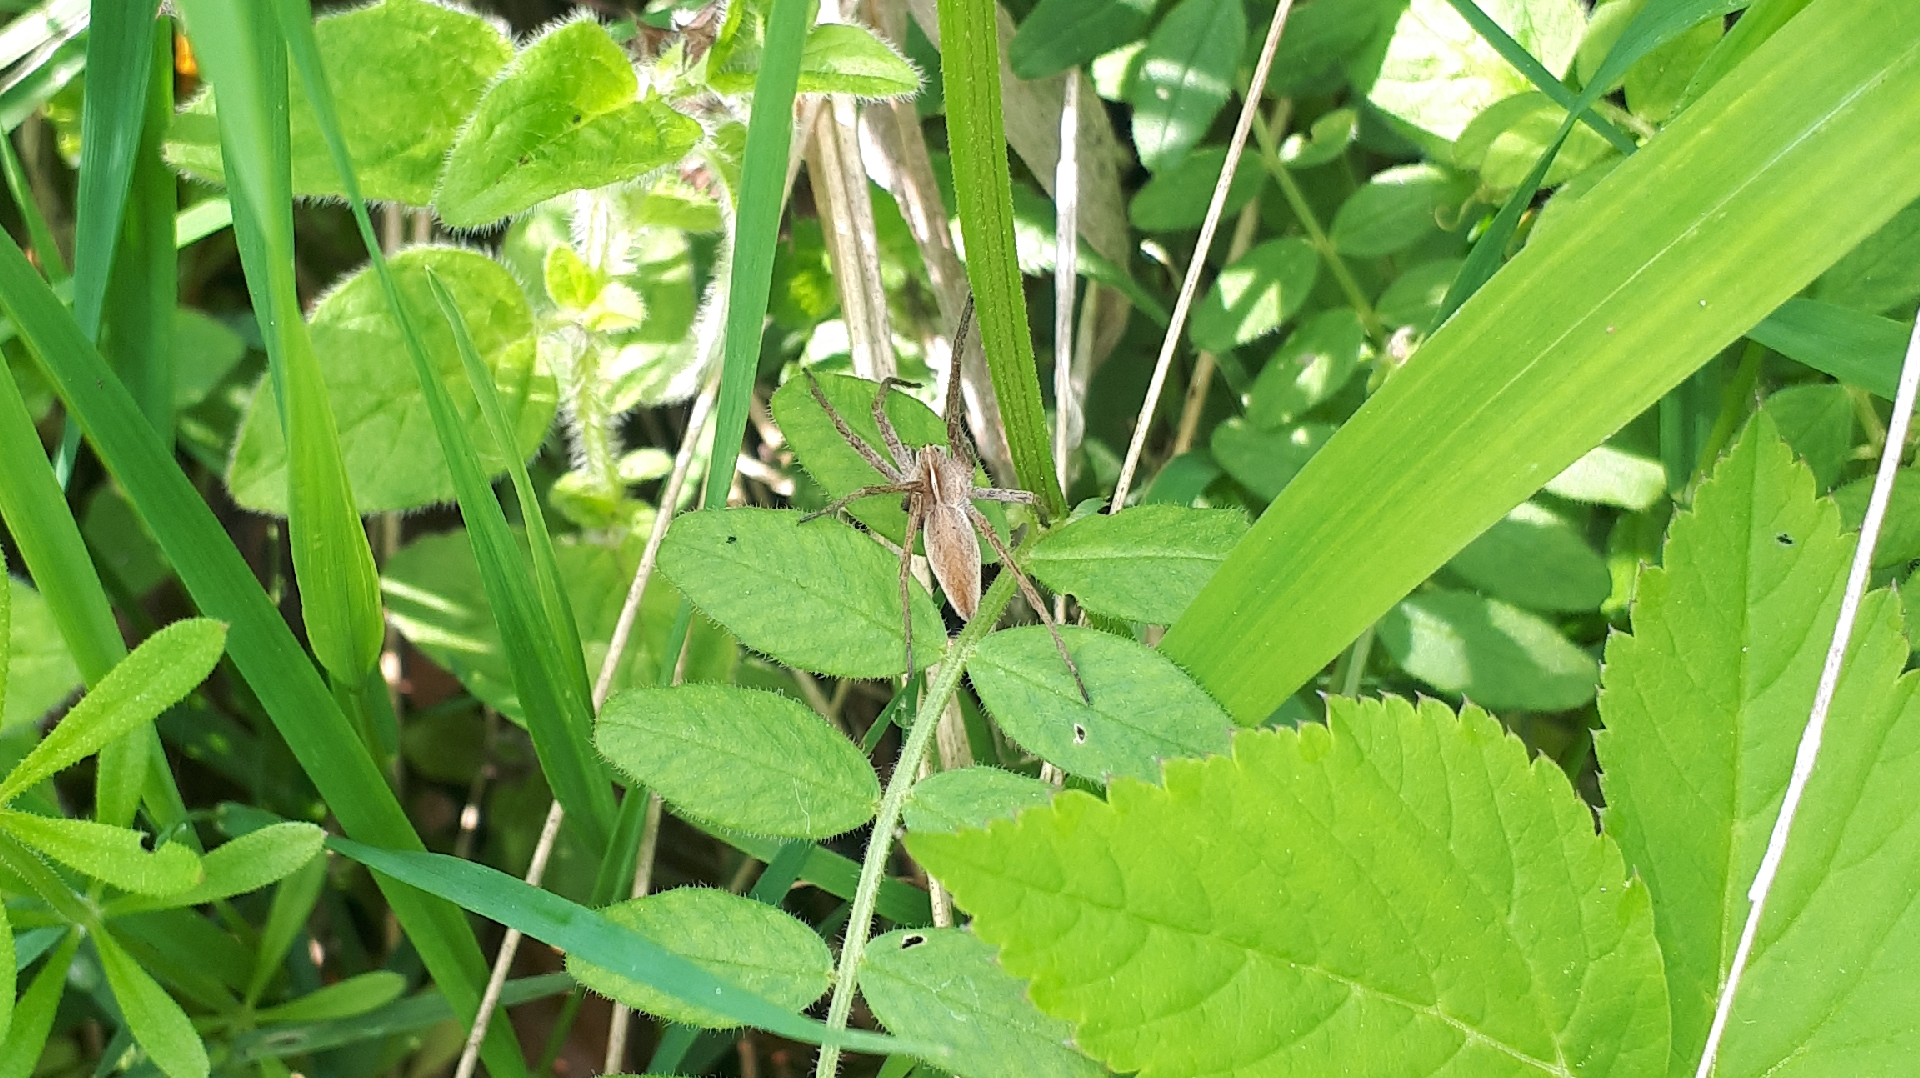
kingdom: Animalia
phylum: Arthropoda
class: Arachnida
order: Araneae
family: Pisauridae
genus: Pisaura
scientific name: Pisaura mirabilis
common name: Tent spider
